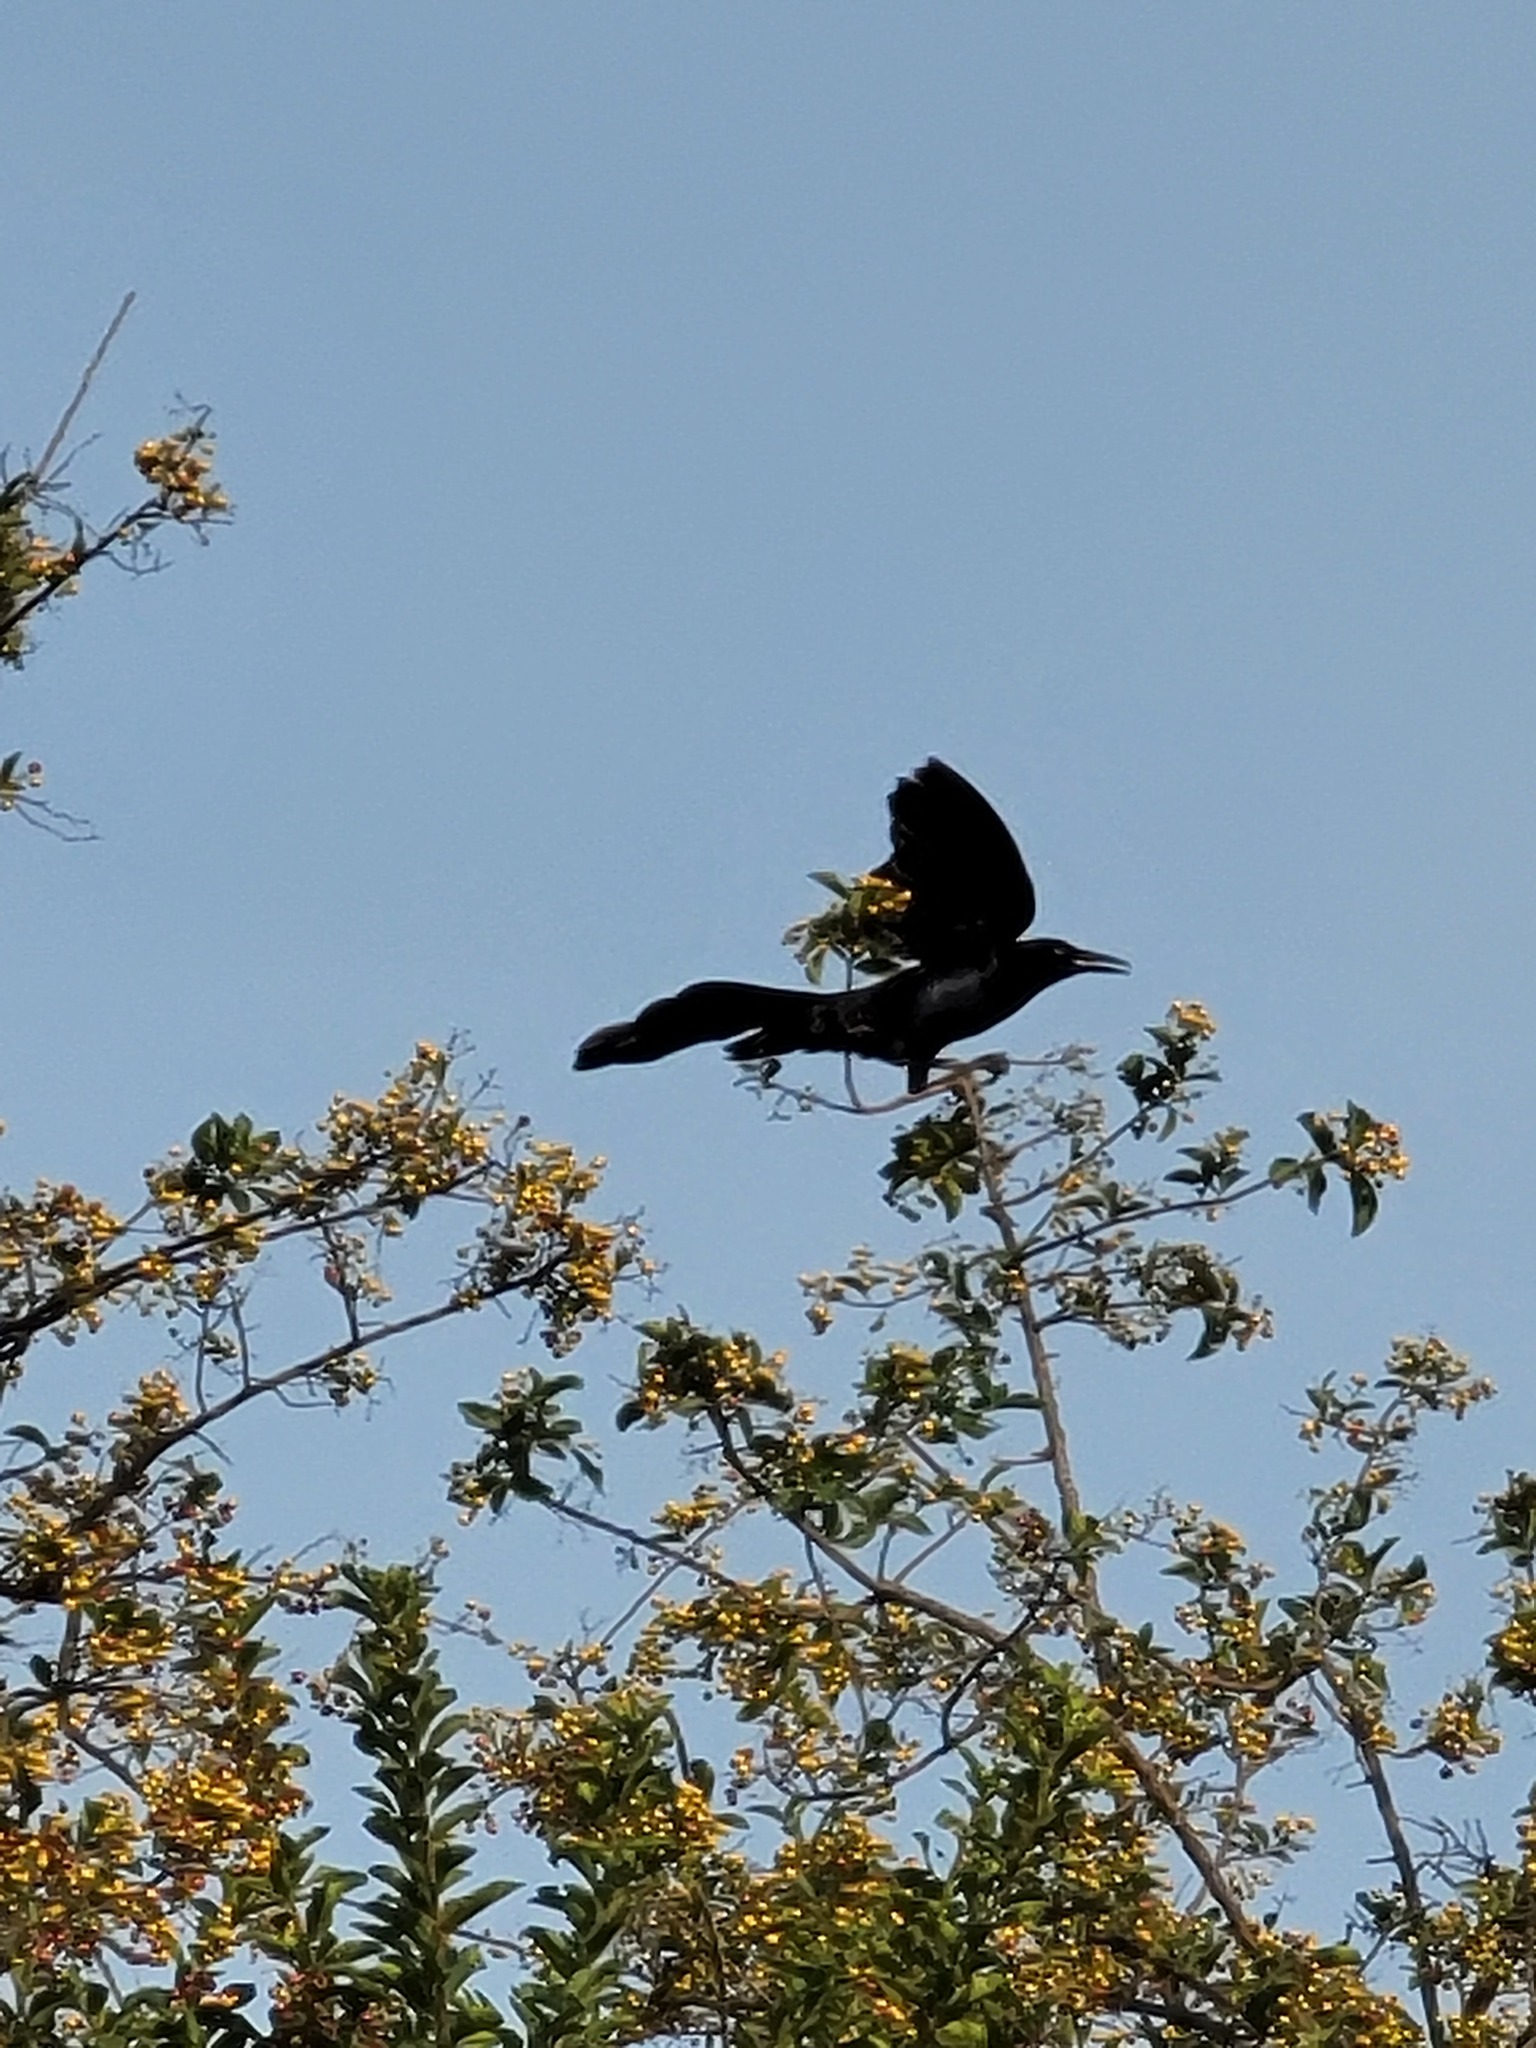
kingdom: Animalia
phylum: Chordata
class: Aves
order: Passeriformes
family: Icteridae
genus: Quiscalus
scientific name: Quiscalus mexicanus
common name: Great-tailed grackle
